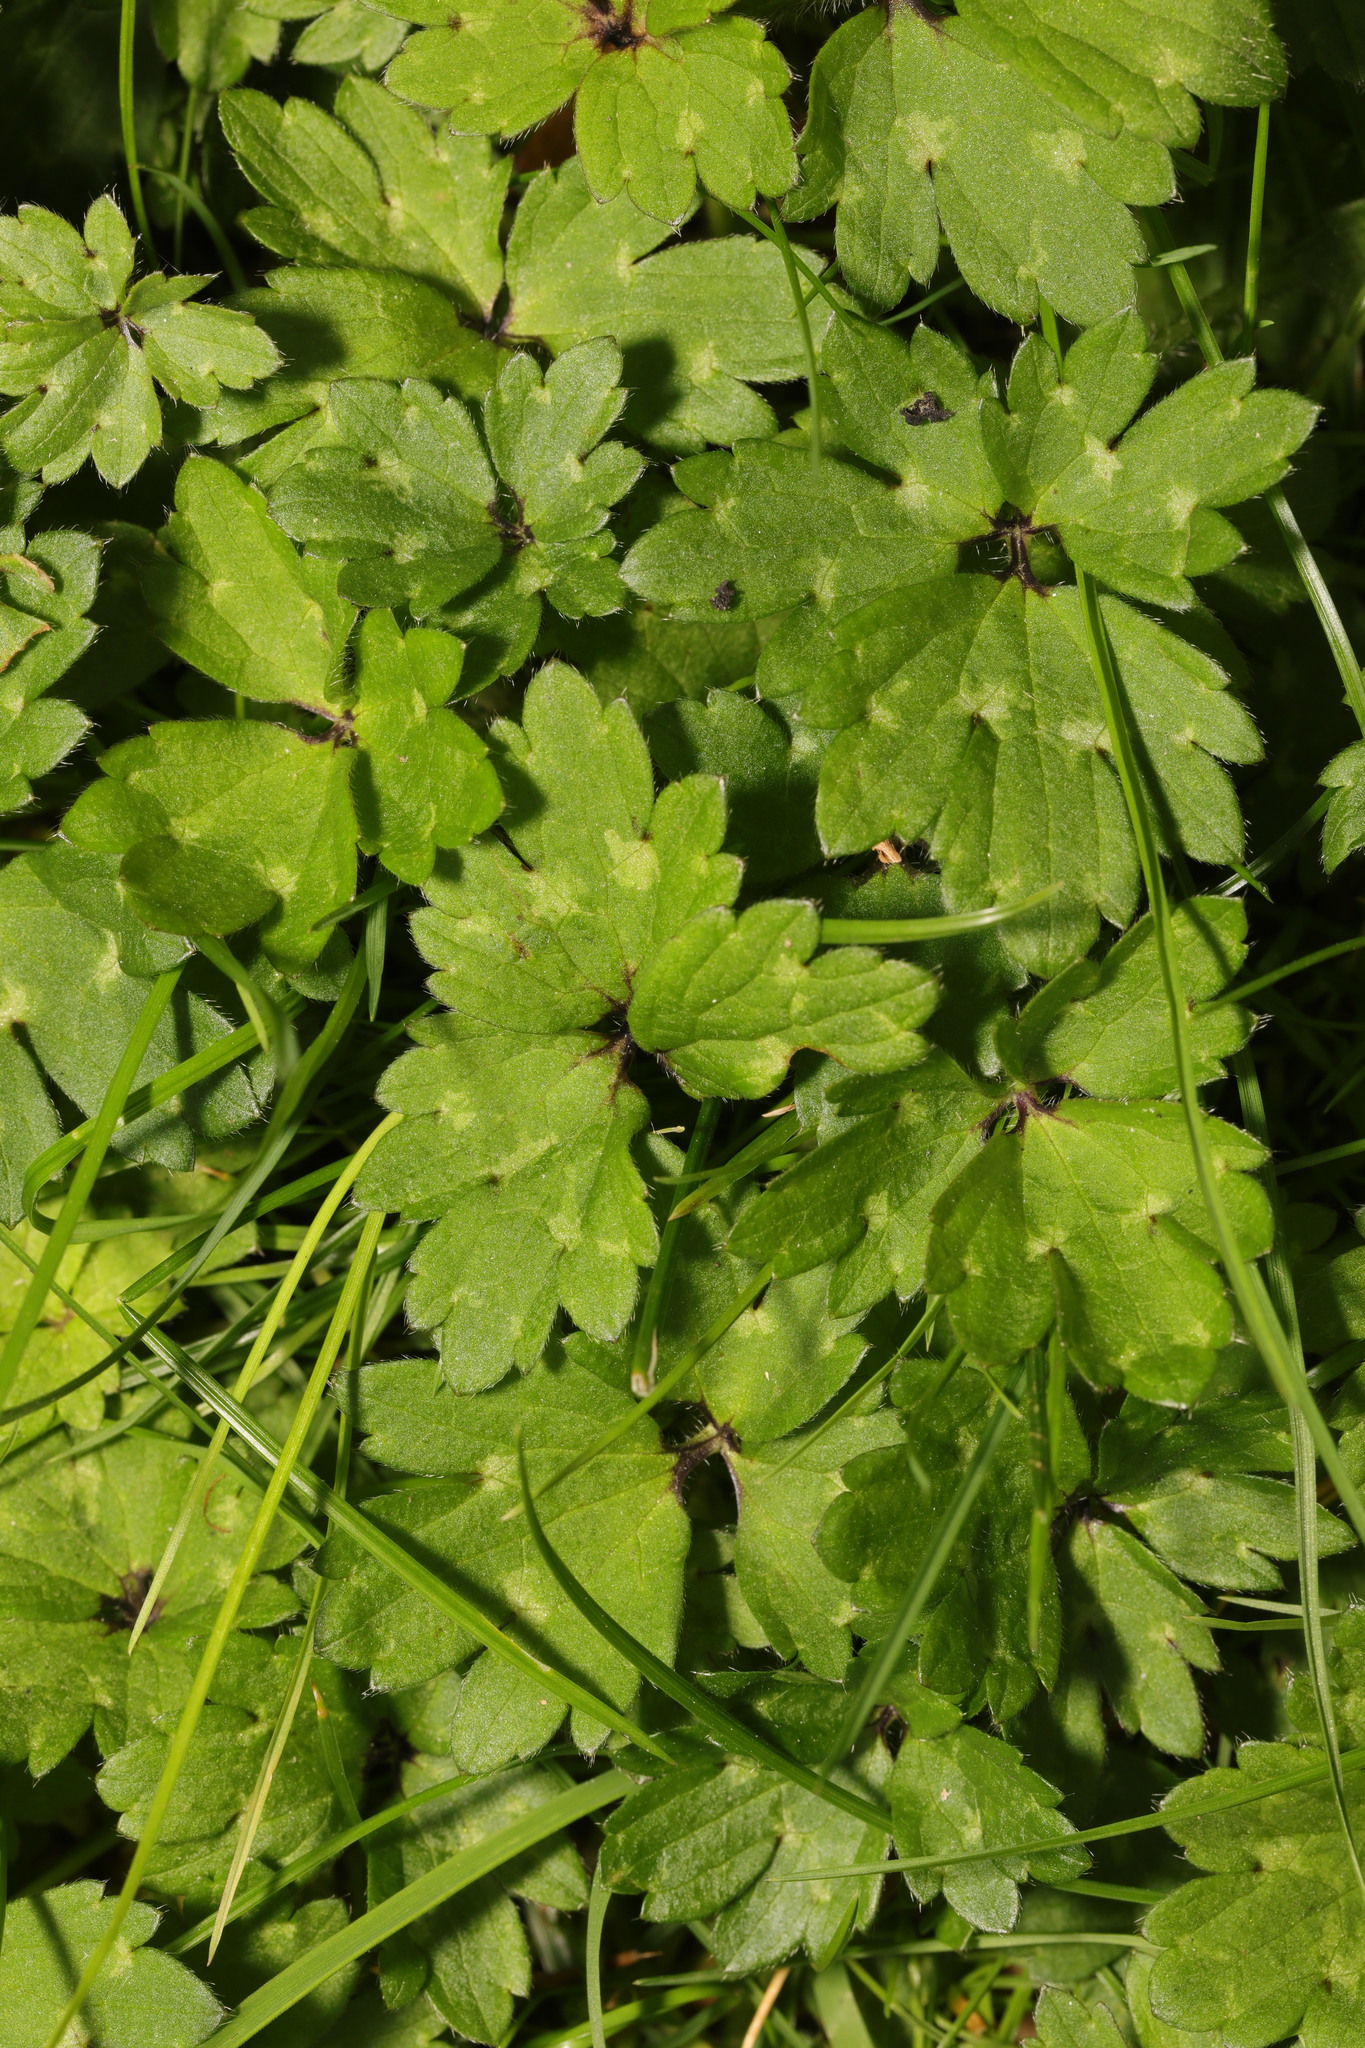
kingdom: Plantae
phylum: Tracheophyta
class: Magnoliopsida
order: Ranunculales
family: Ranunculaceae
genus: Ranunculus
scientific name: Ranunculus repens
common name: Creeping buttercup
